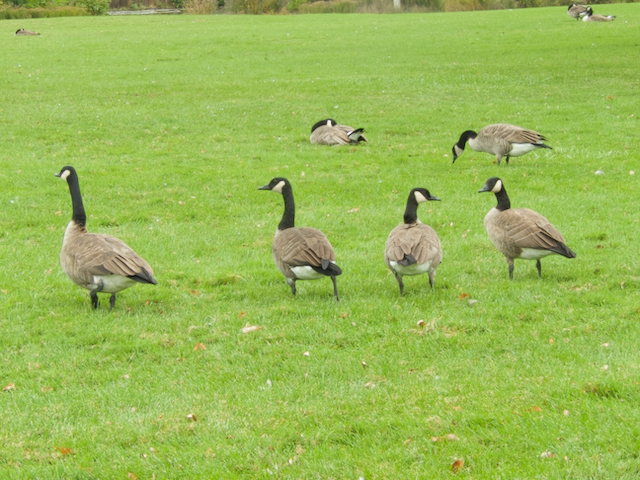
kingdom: Animalia
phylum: Chordata
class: Aves
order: Anseriformes
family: Anatidae
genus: Branta
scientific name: Branta canadensis
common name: Canada goose
